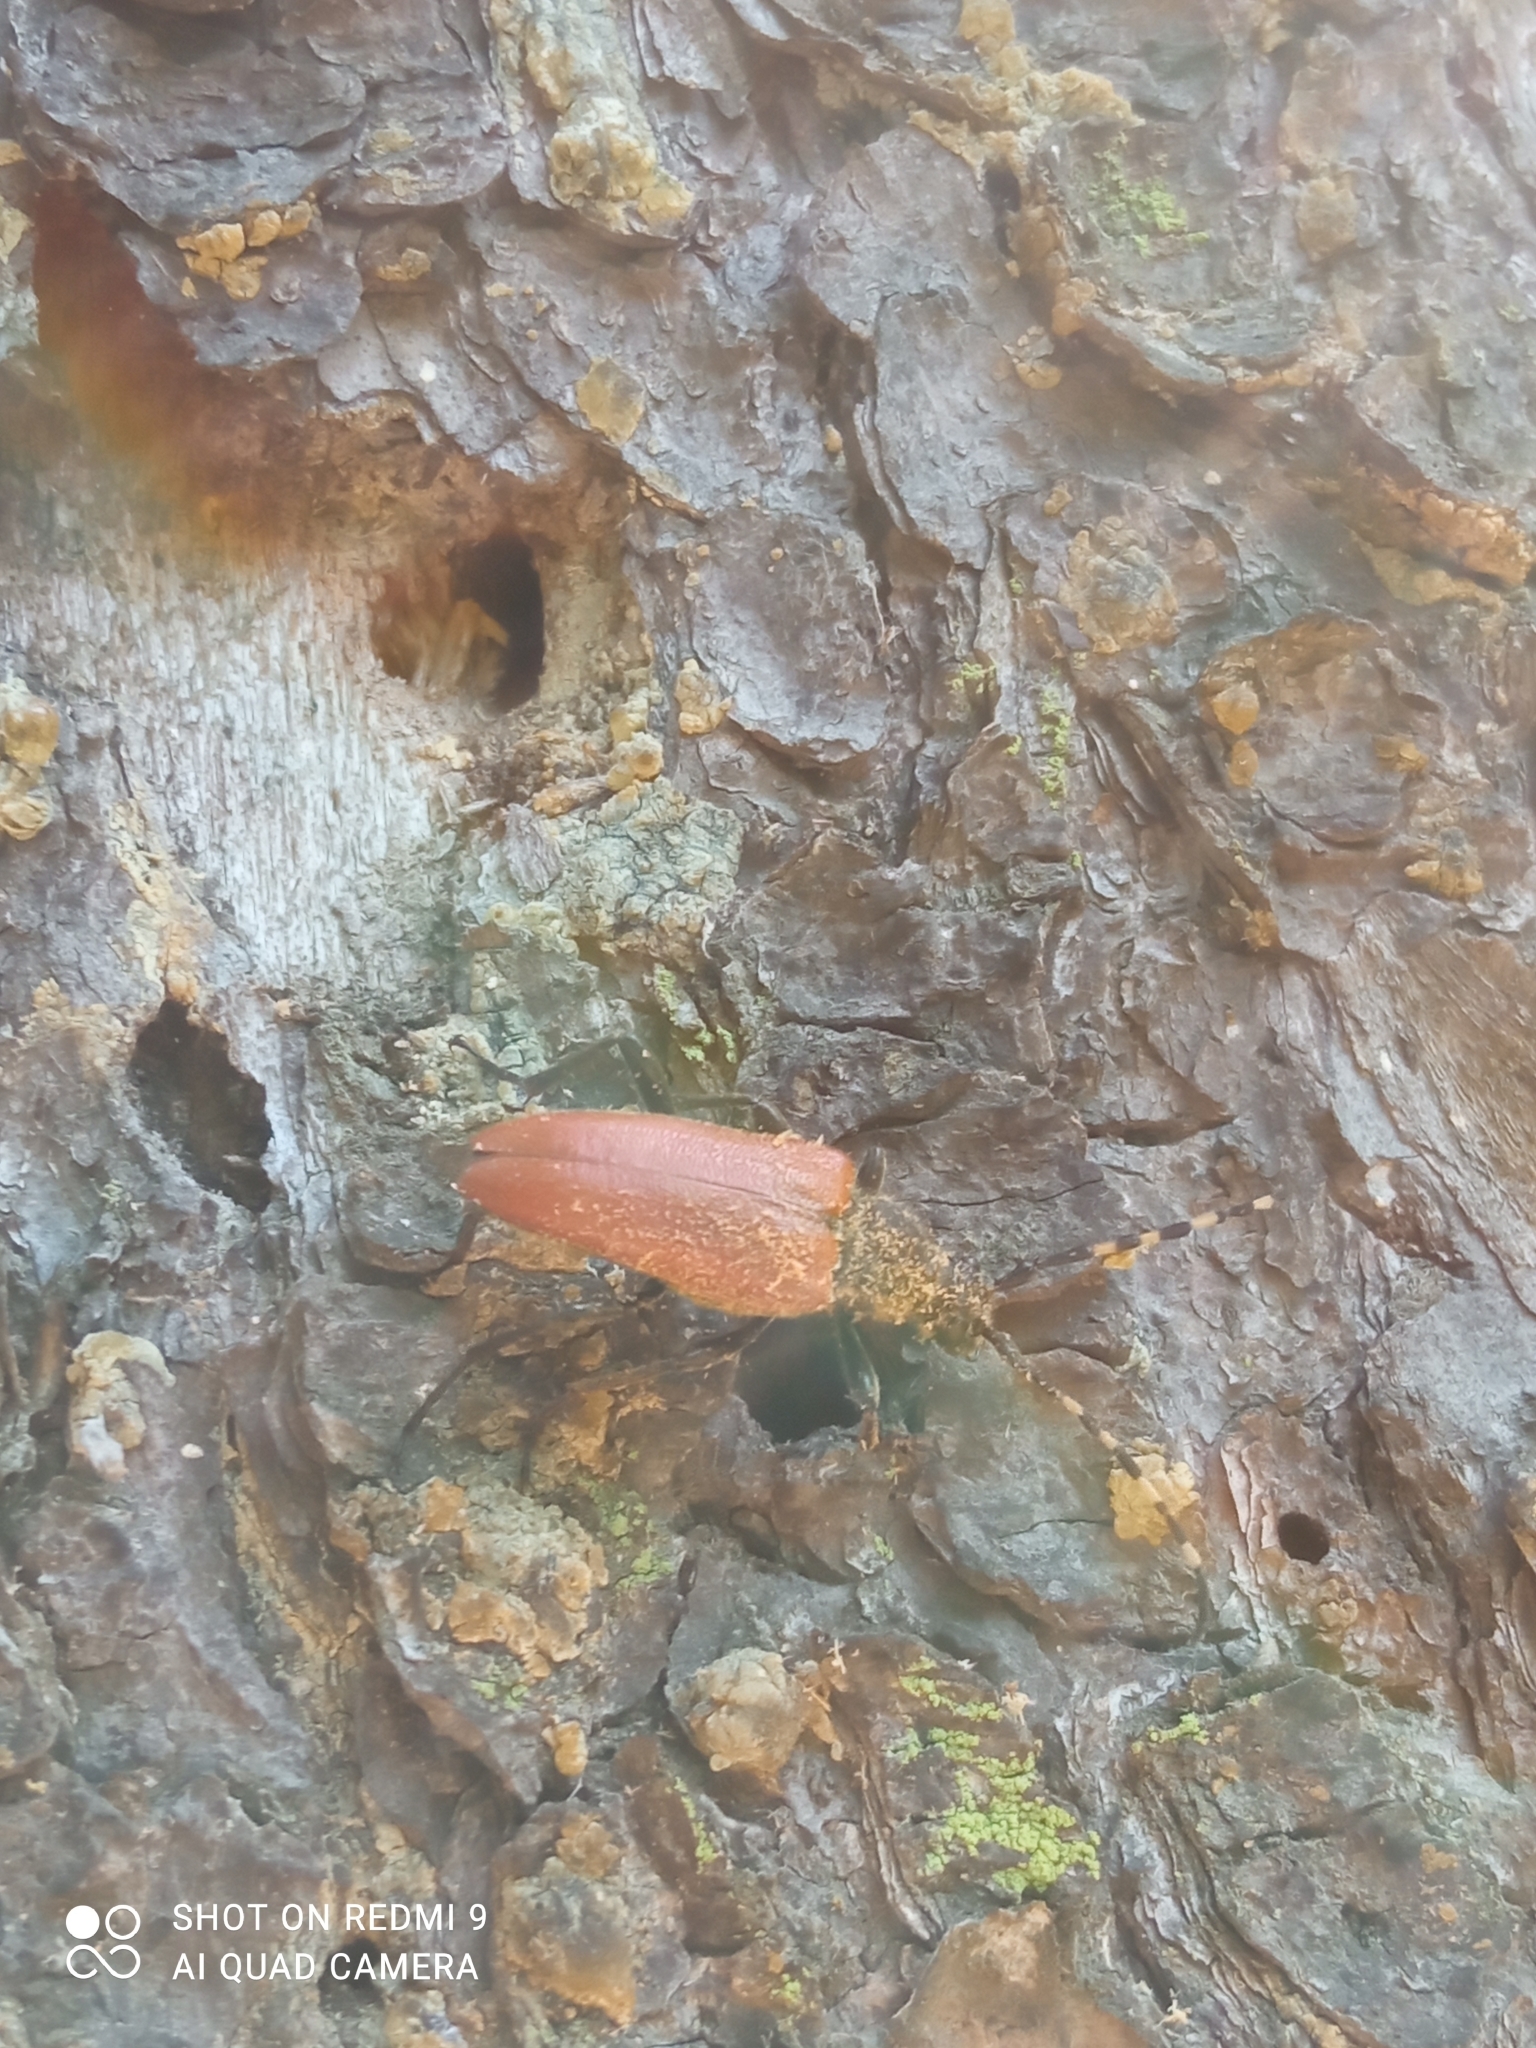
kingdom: Animalia
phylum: Arthropoda
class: Insecta
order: Coleoptera
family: Cerambycidae
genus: Stictoleptura
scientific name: Stictoleptura variicornis
